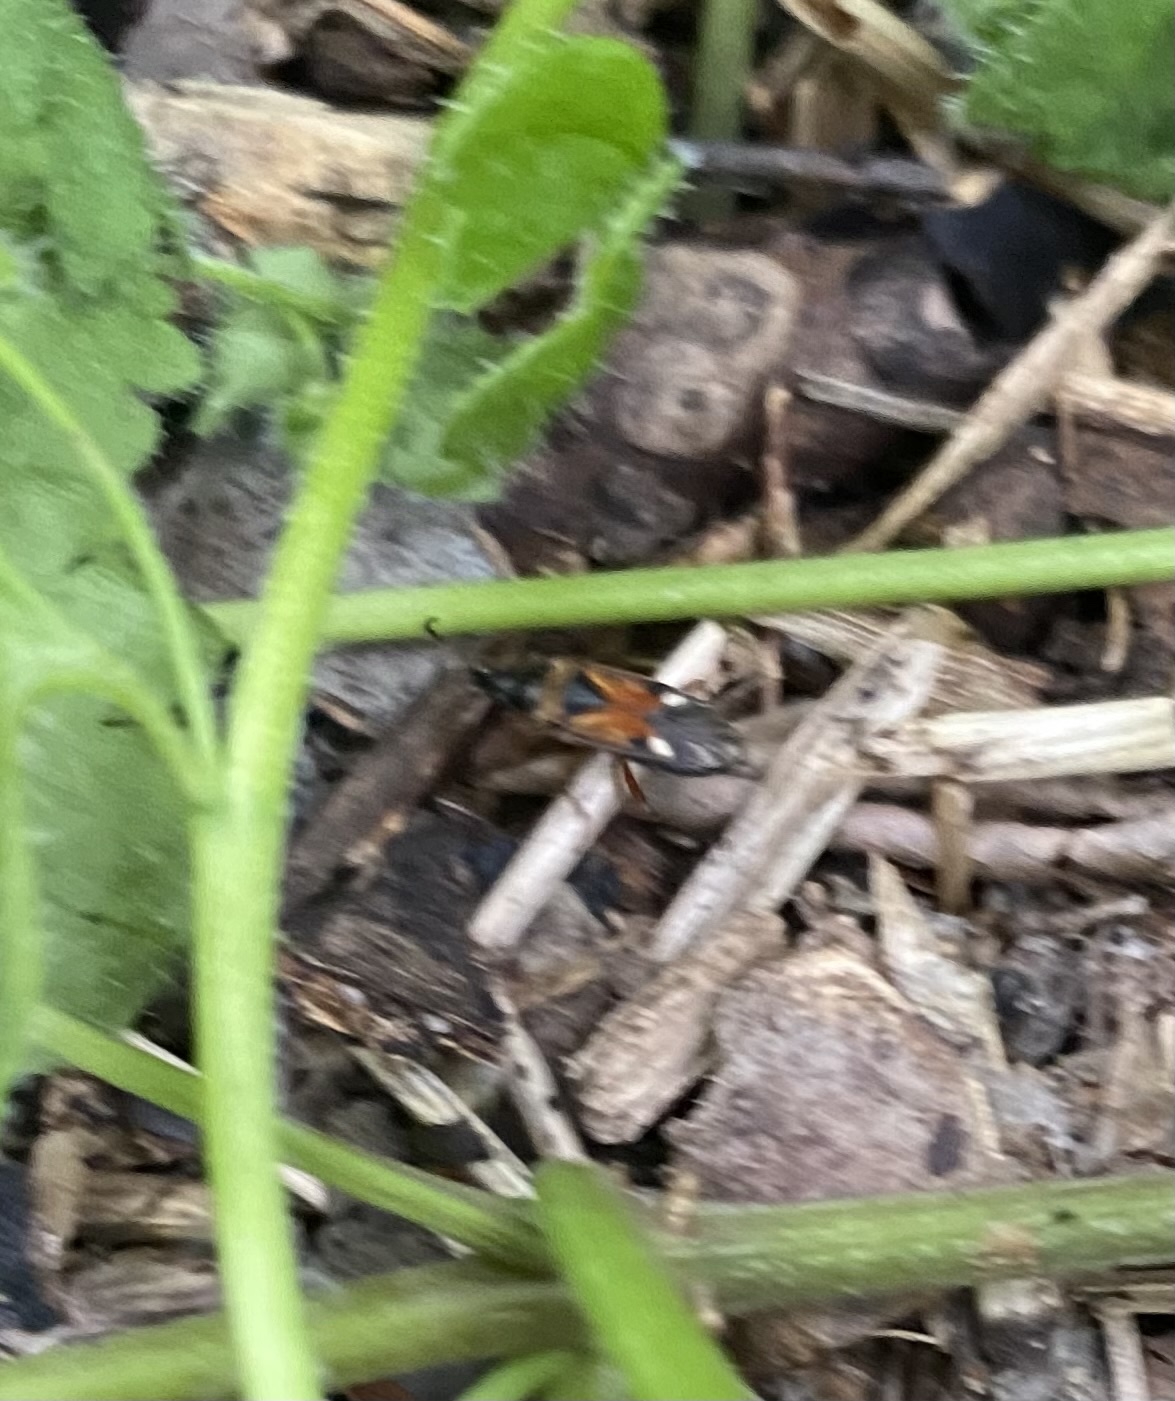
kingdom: Animalia
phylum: Arthropoda
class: Insecta
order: Hemiptera
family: Rhyparochromidae
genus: Raglius
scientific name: Raglius alboacuminatus
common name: Dirt-colored seed bug
